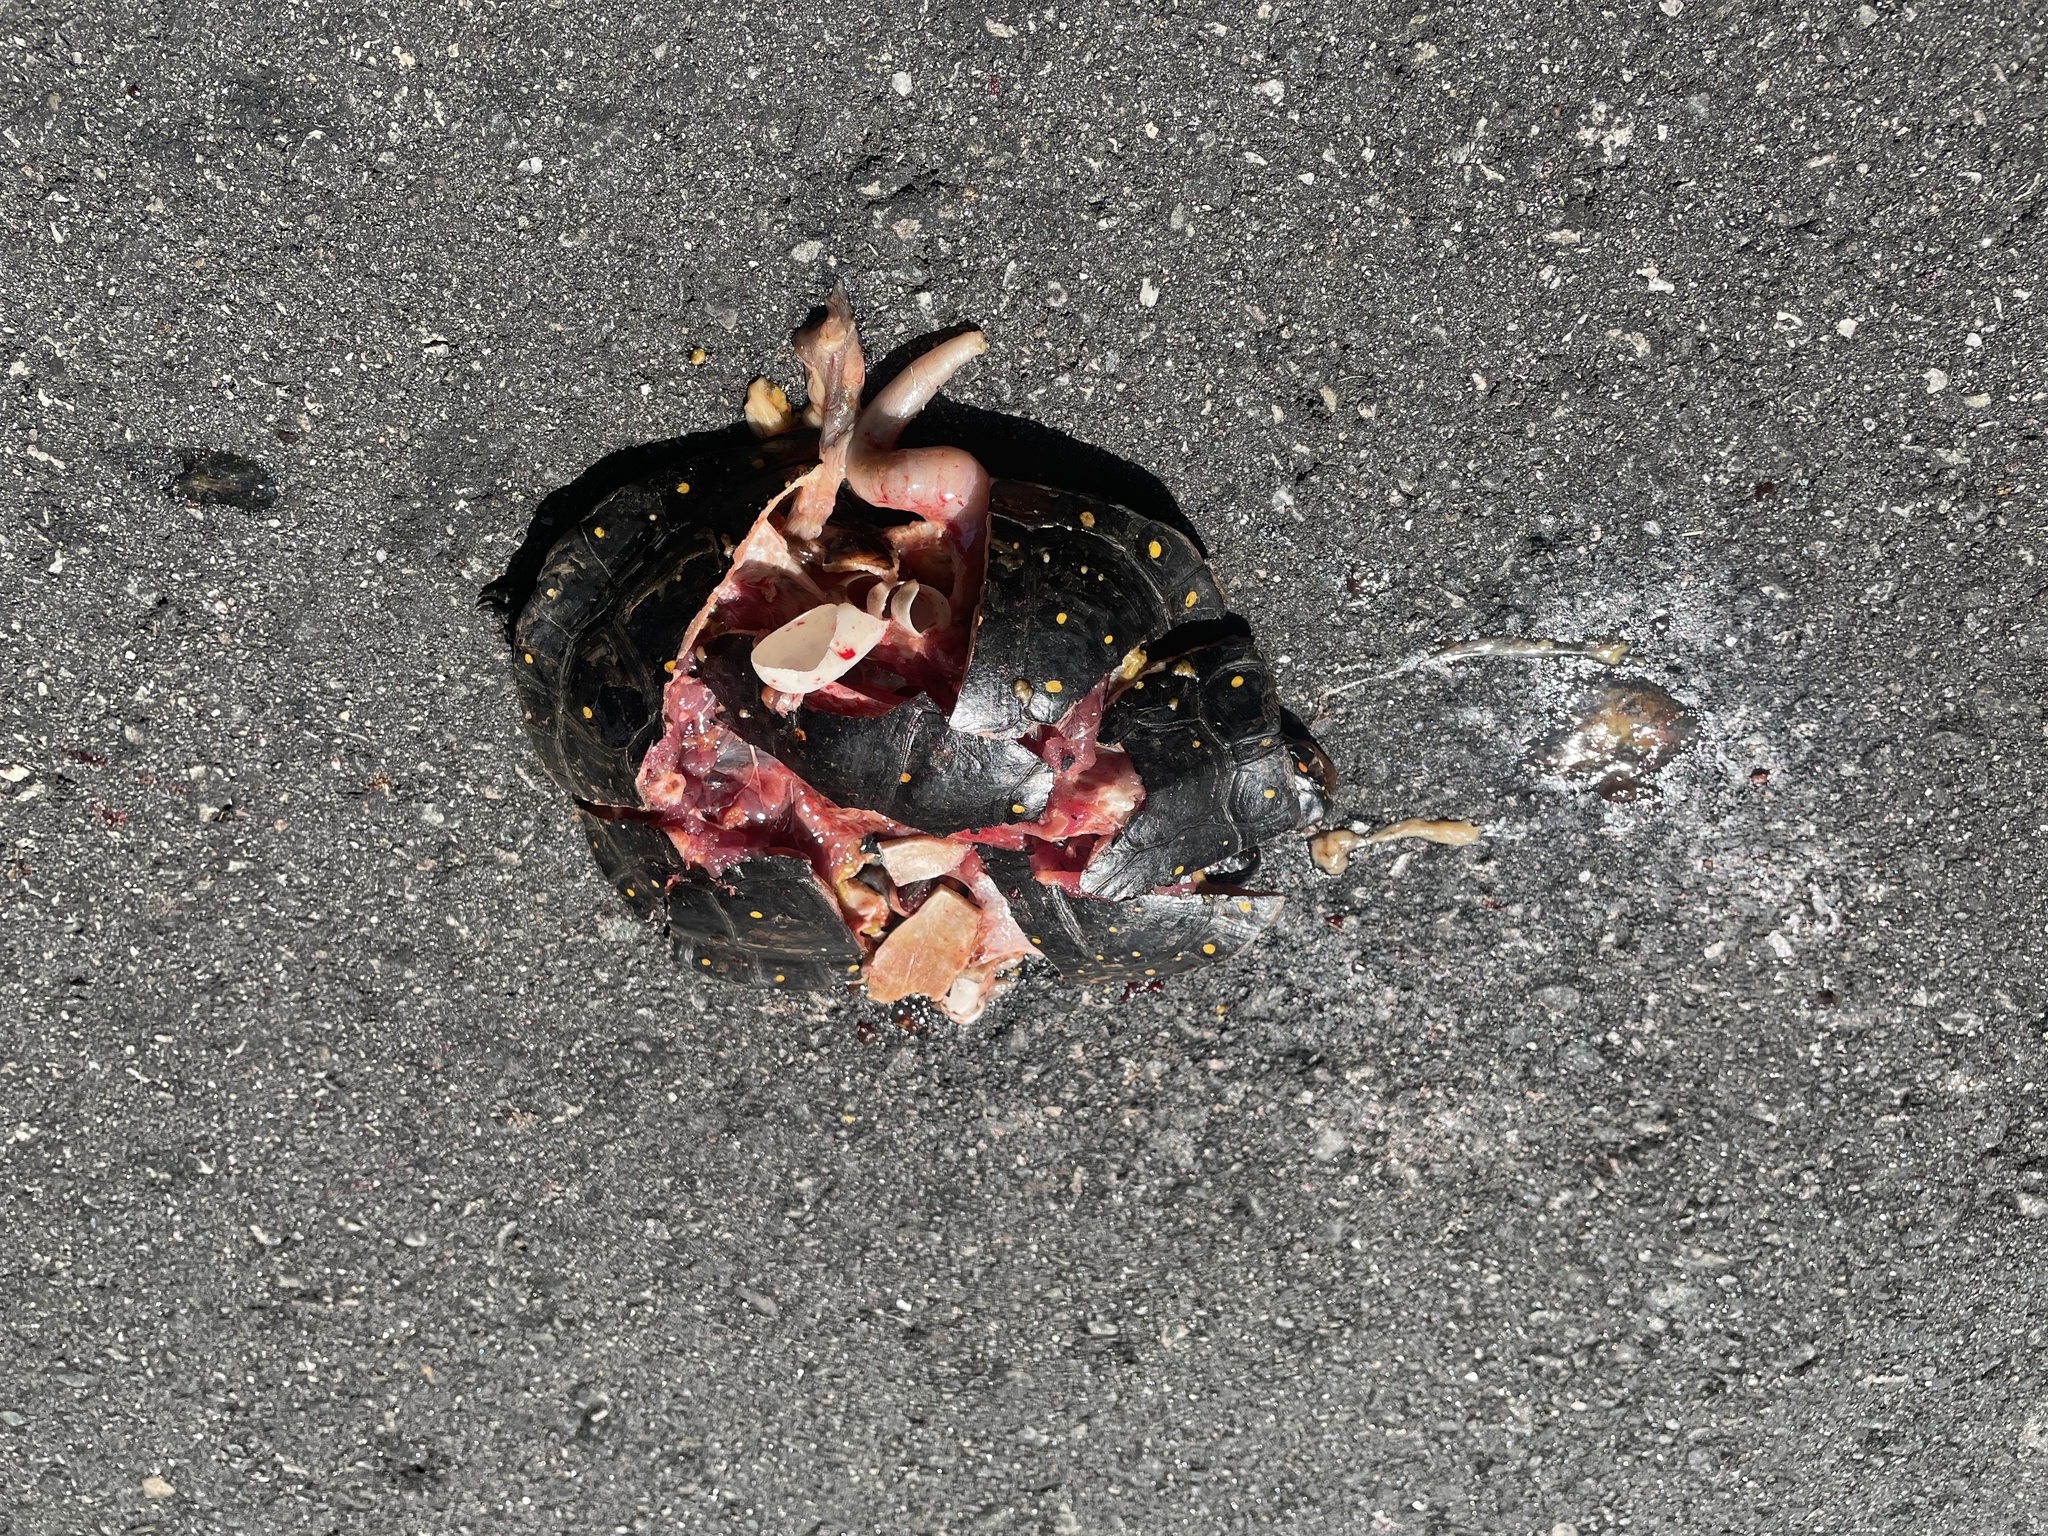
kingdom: Animalia
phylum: Chordata
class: Testudines
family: Emydidae
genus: Clemmys
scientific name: Clemmys guttata
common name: Spotted turtle
